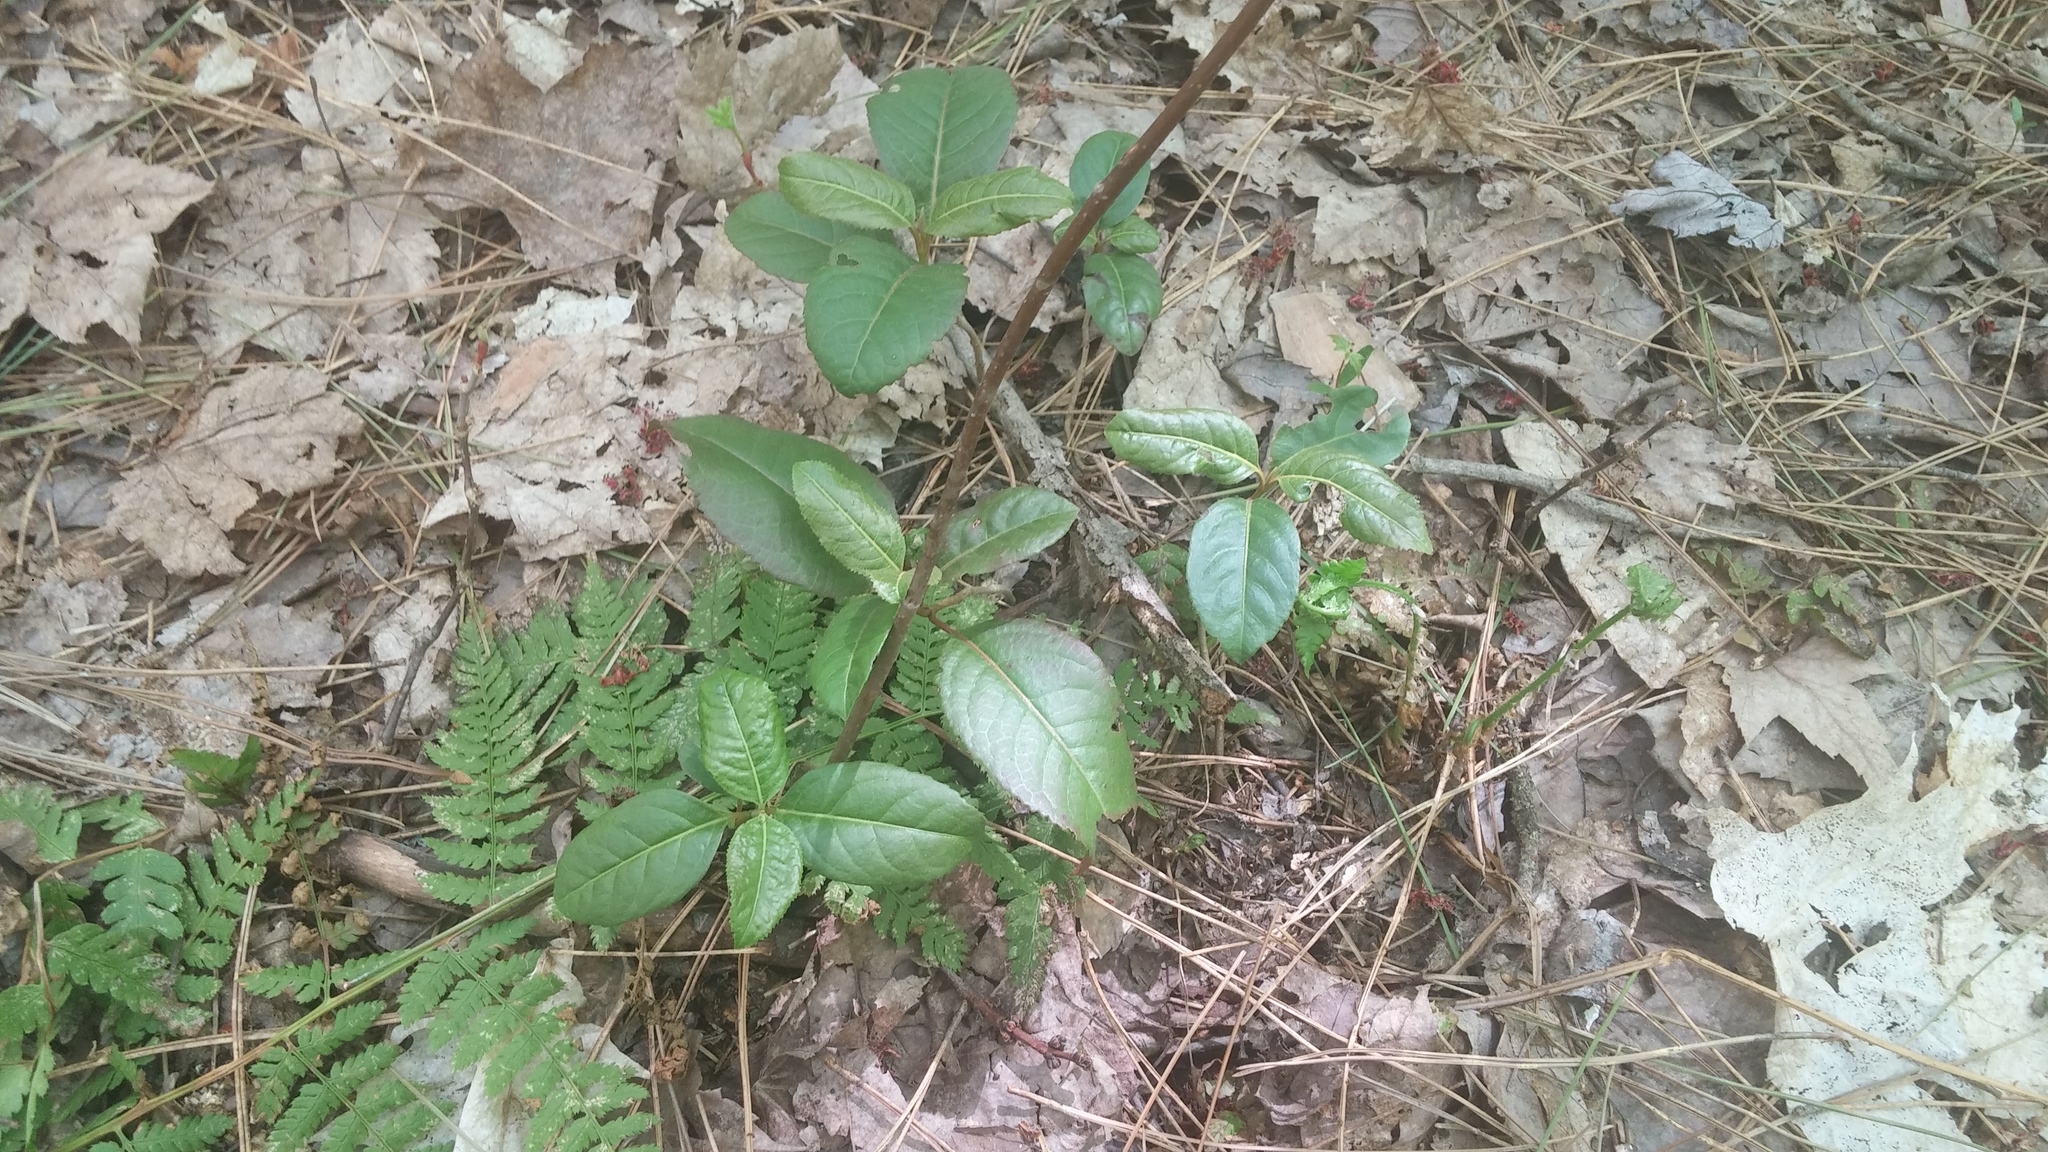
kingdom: Plantae
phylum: Tracheophyta
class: Magnoliopsida
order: Dipsacales
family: Viburnaceae
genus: Viburnum
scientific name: Viburnum cassinoides
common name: Swamp haw
